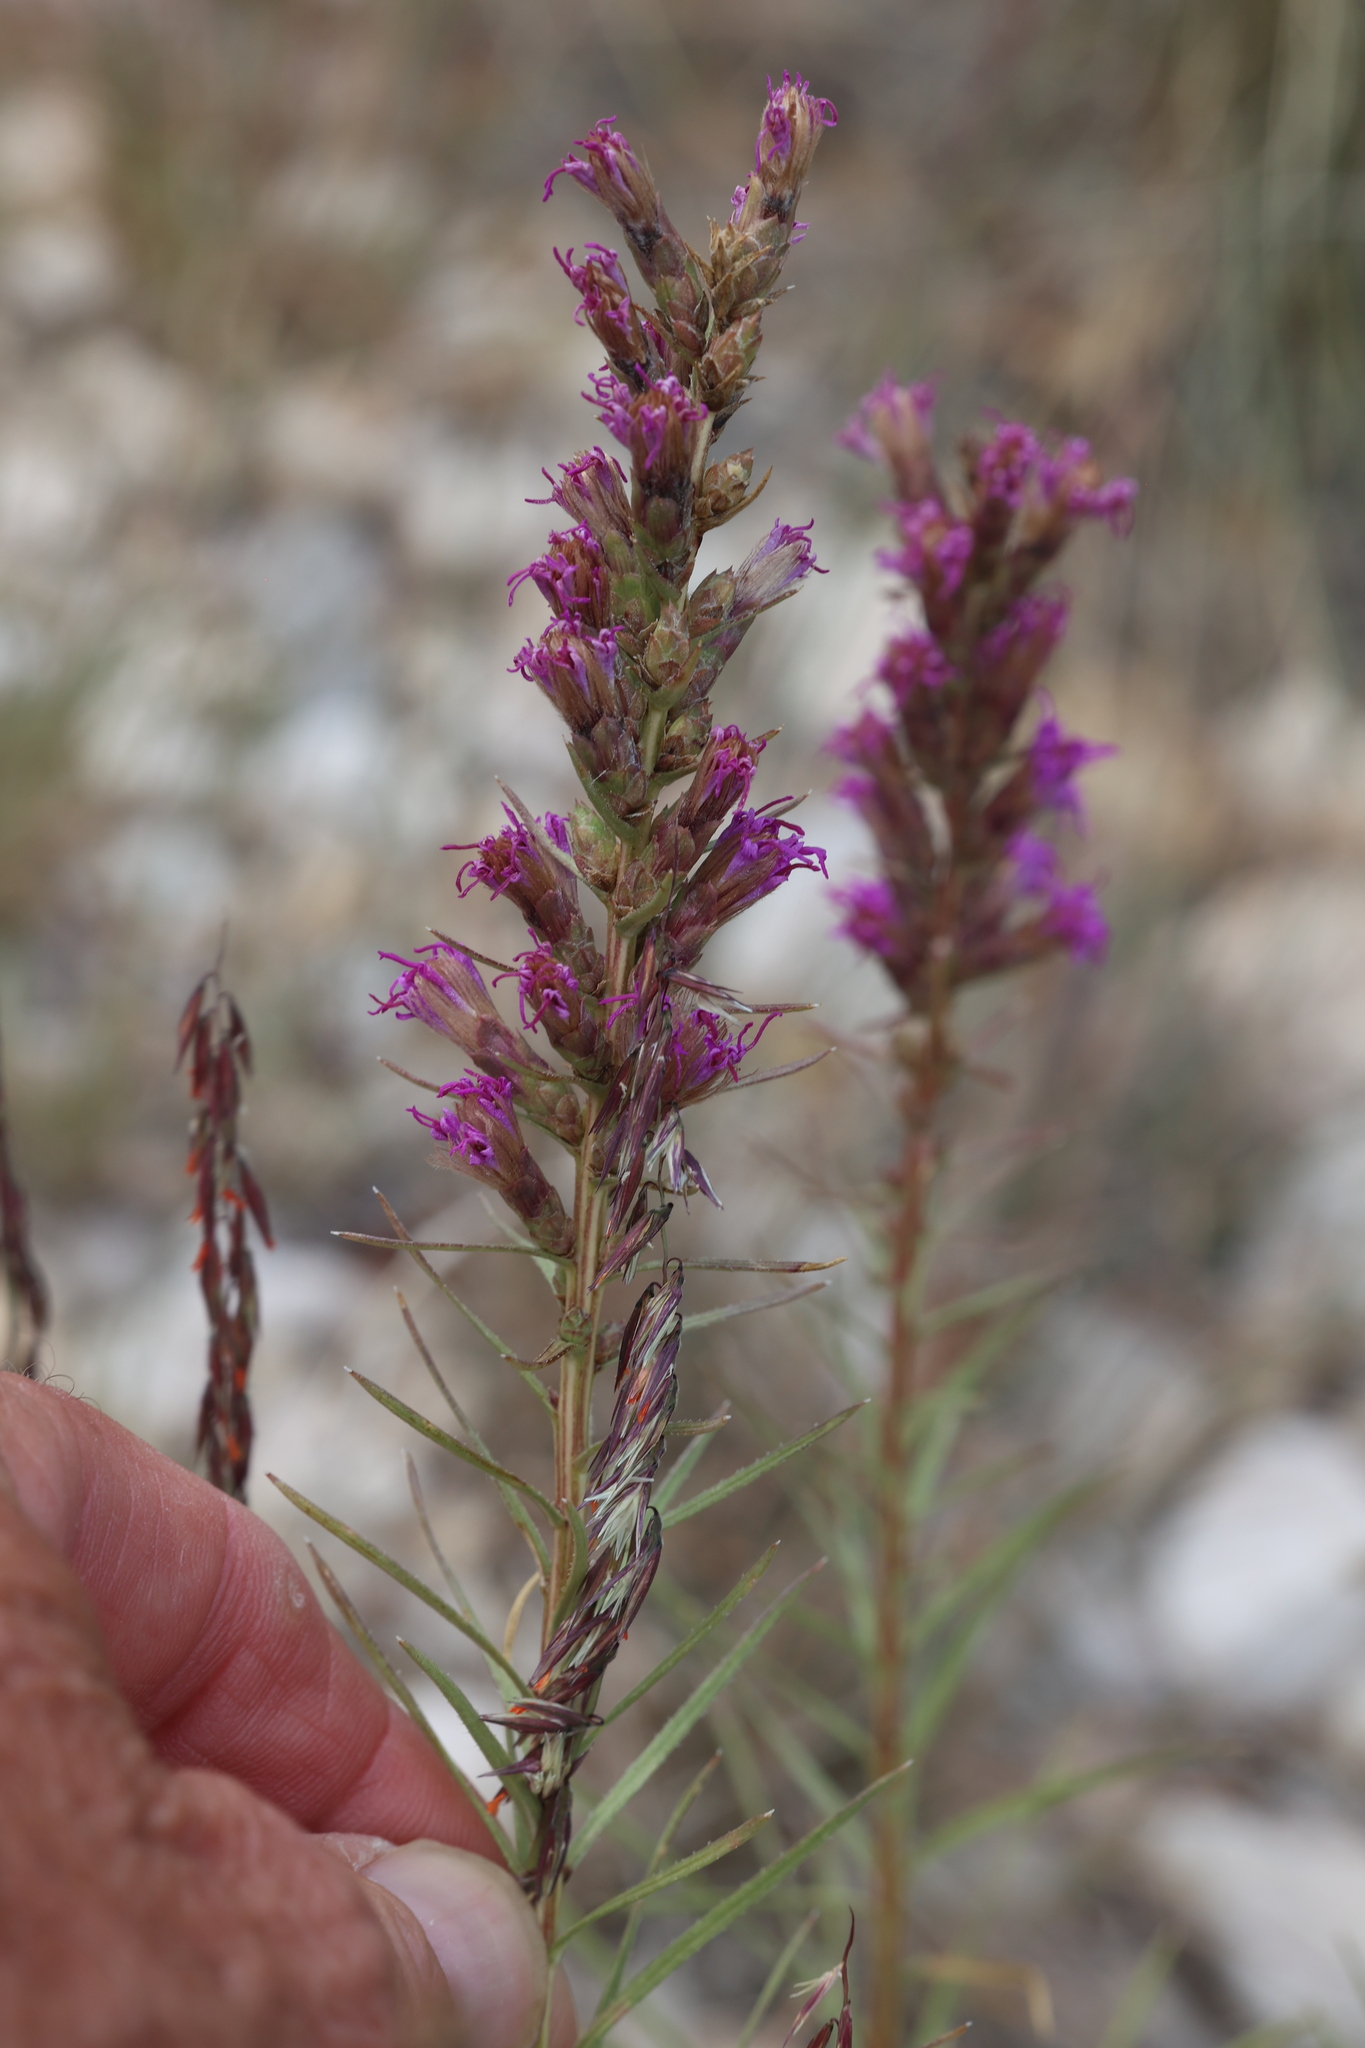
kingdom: Plantae
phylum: Tracheophyta
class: Magnoliopsida
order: Asterales
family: Asteraceae
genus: Liatris
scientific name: Liatris punctata
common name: Dotted gayfeather
